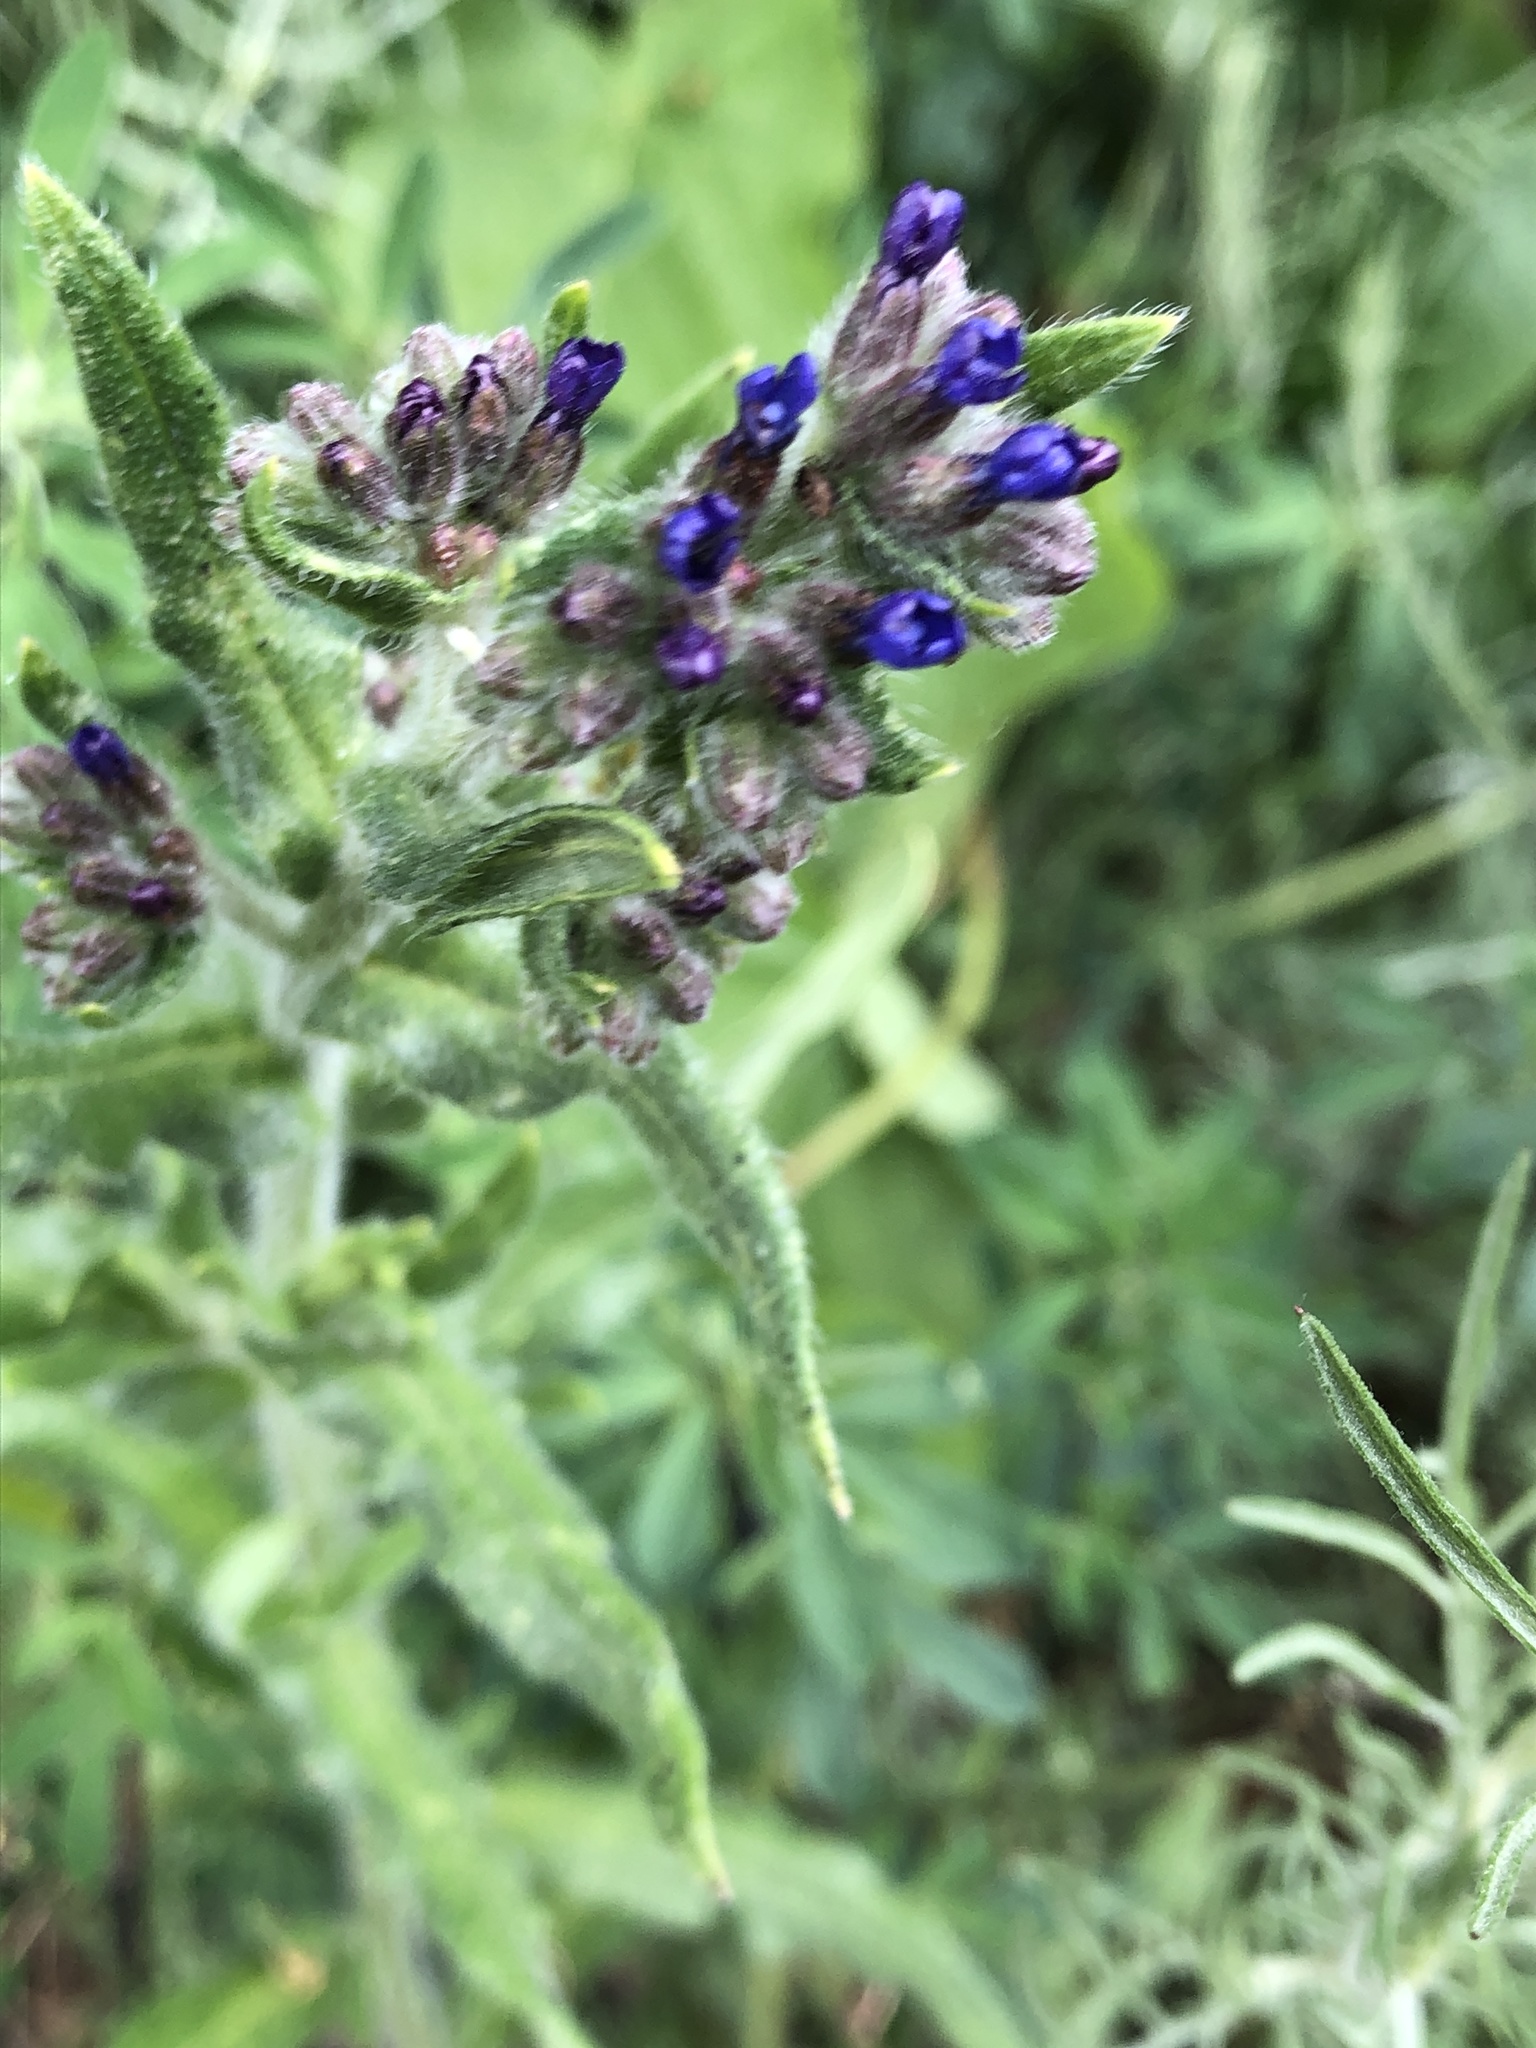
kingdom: Plantae
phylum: Tracheophyta
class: Magnoliopsida
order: Boraginales
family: Boraginaceae
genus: Anchusa
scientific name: Anchusa officinalis
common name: Alkanet
